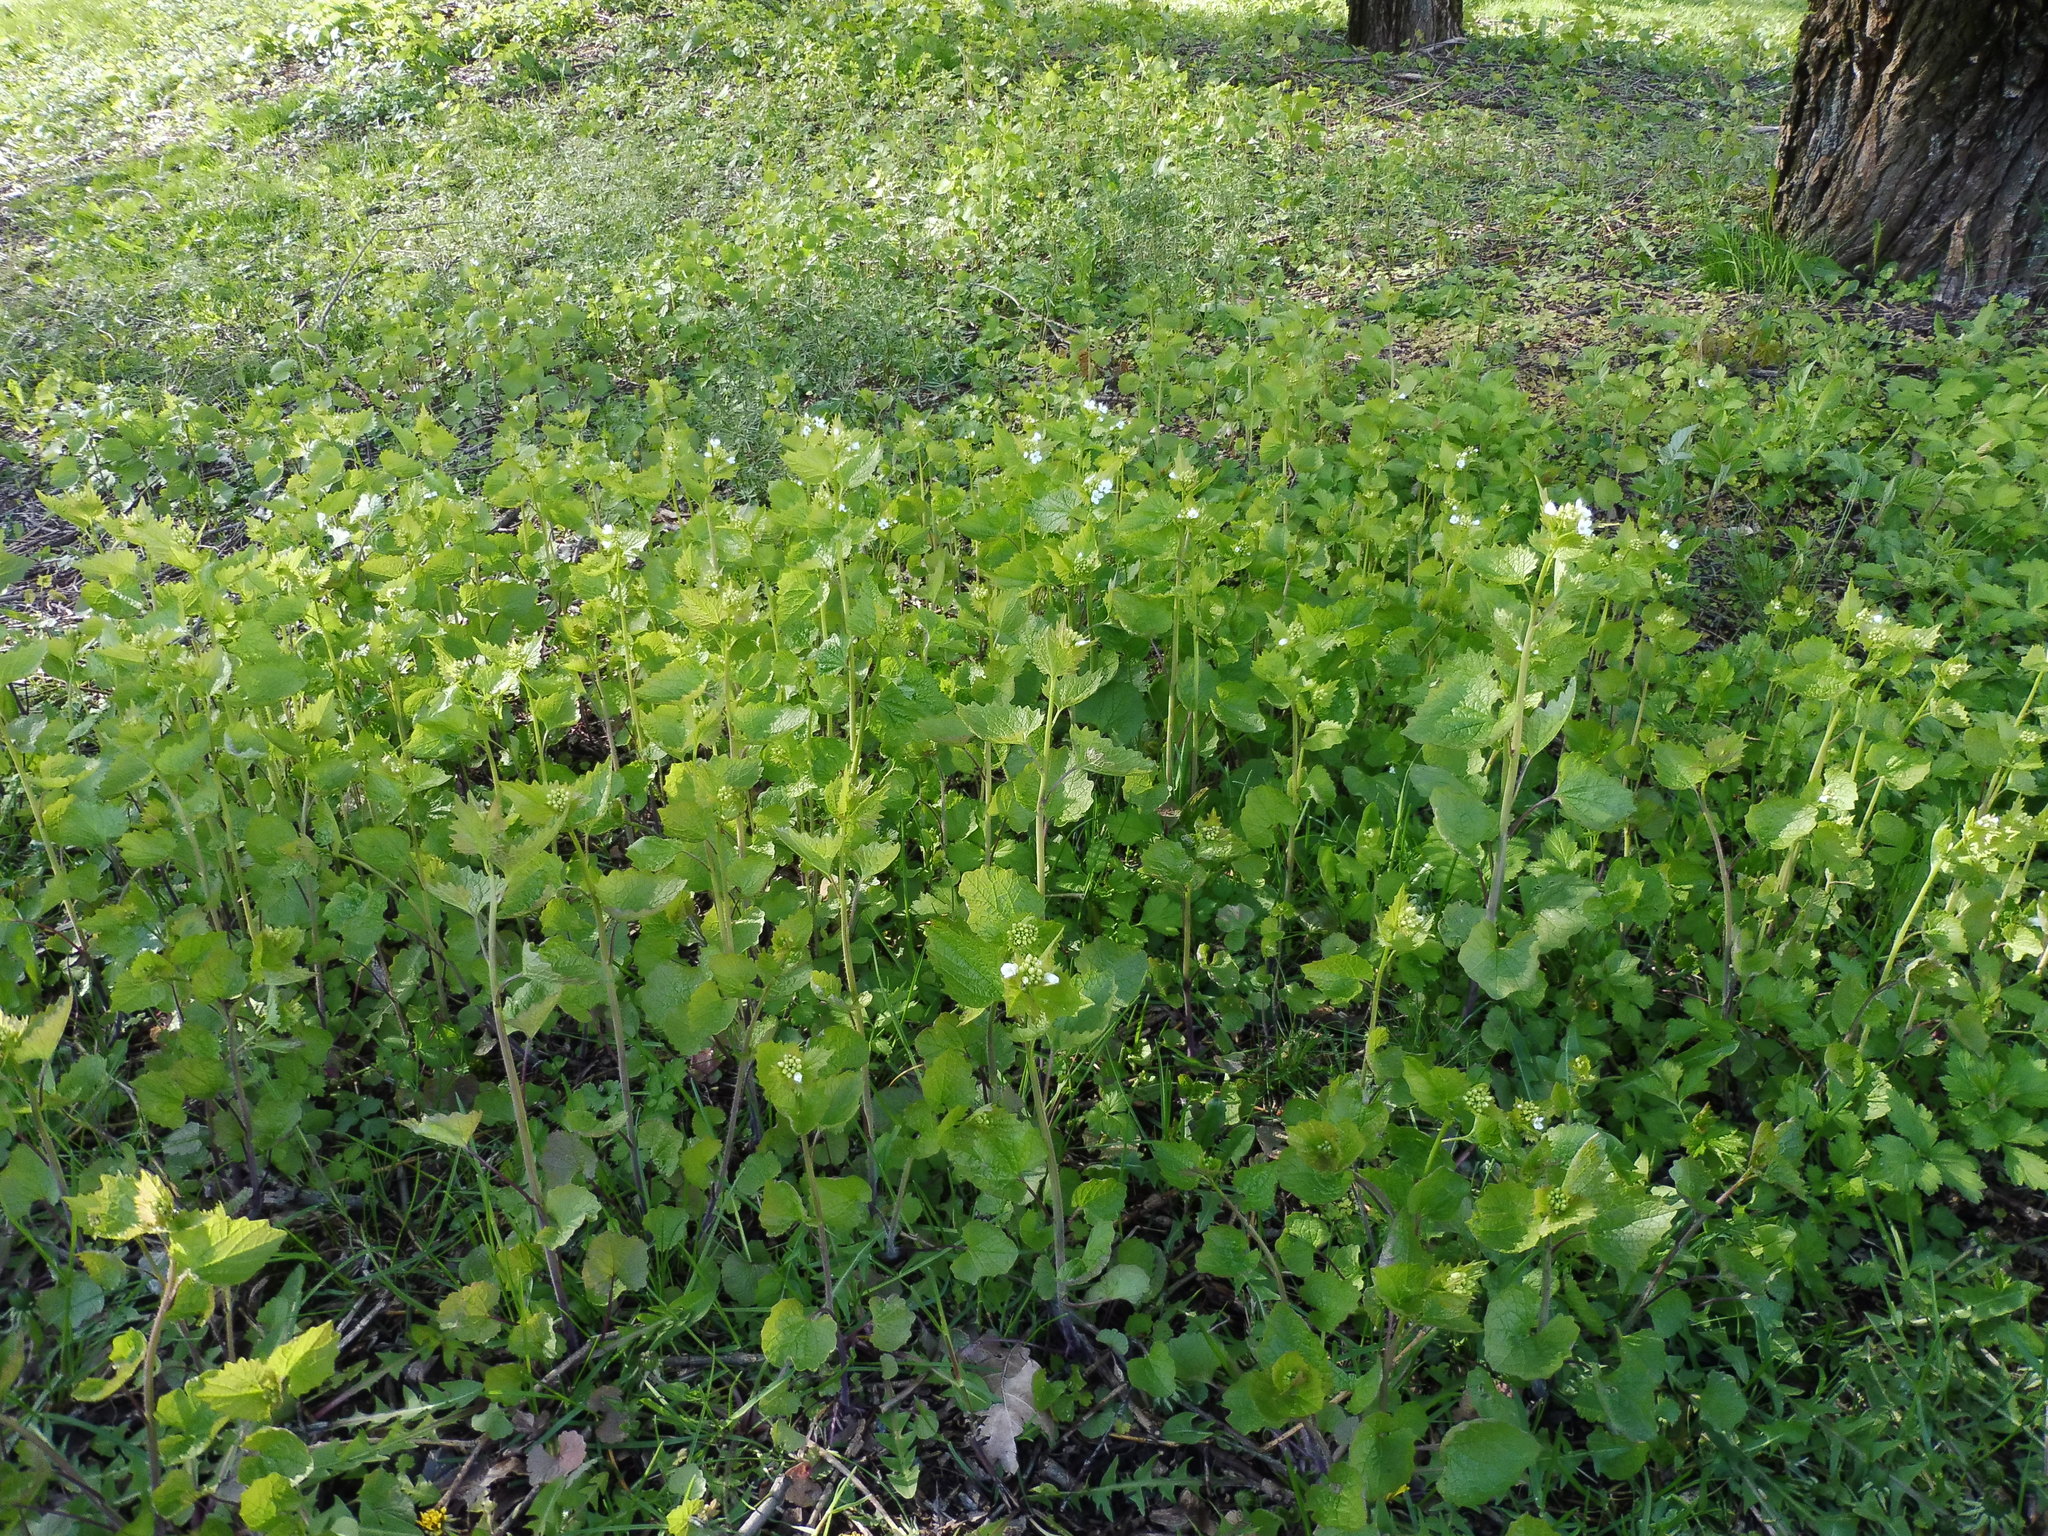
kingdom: Plantae
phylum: Tracheophyta
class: Magnoliopsida
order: Brassicales
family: Brassicaceae
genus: Alliaria
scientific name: Alliaria petiolata
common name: Garlic mustard
